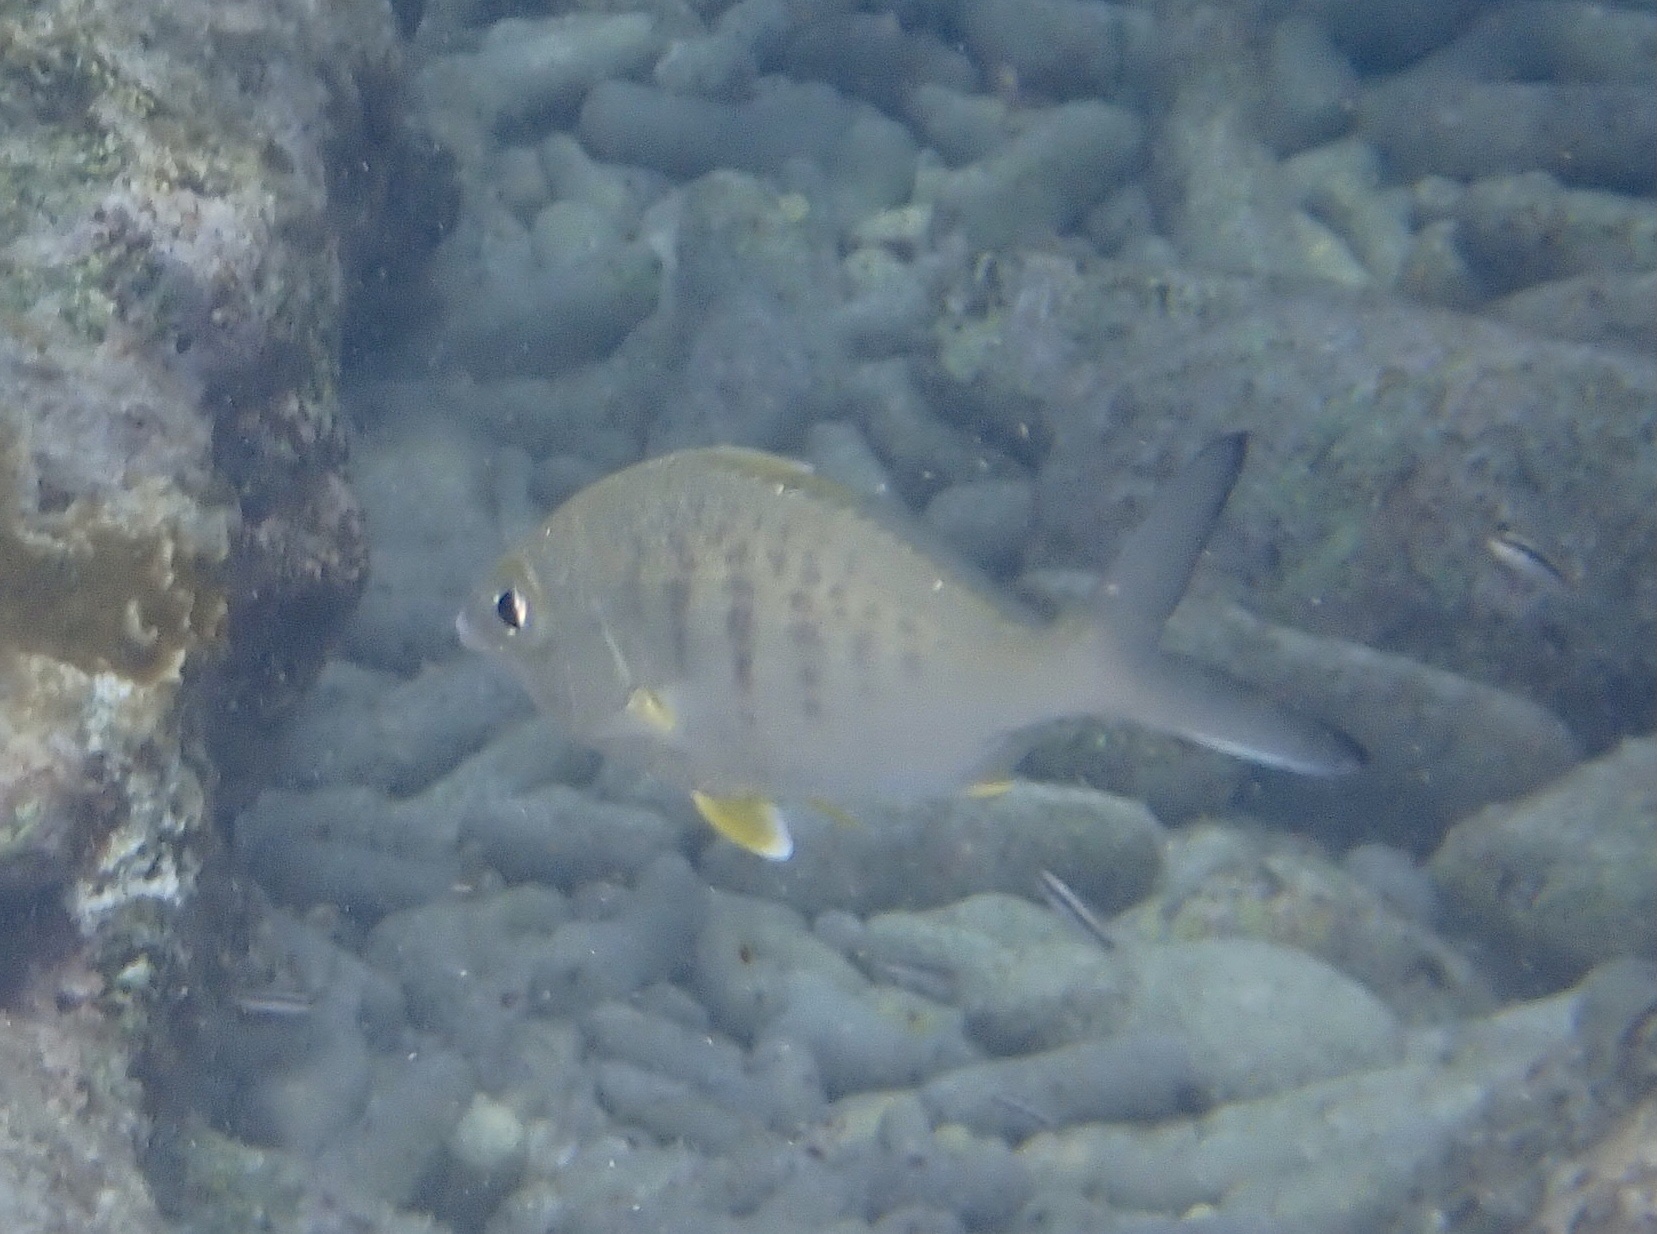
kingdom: Animalia
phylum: Chordata
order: Perciformes
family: Gerreidae
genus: Gerres
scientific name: Gerres cinereus
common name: Hedow
